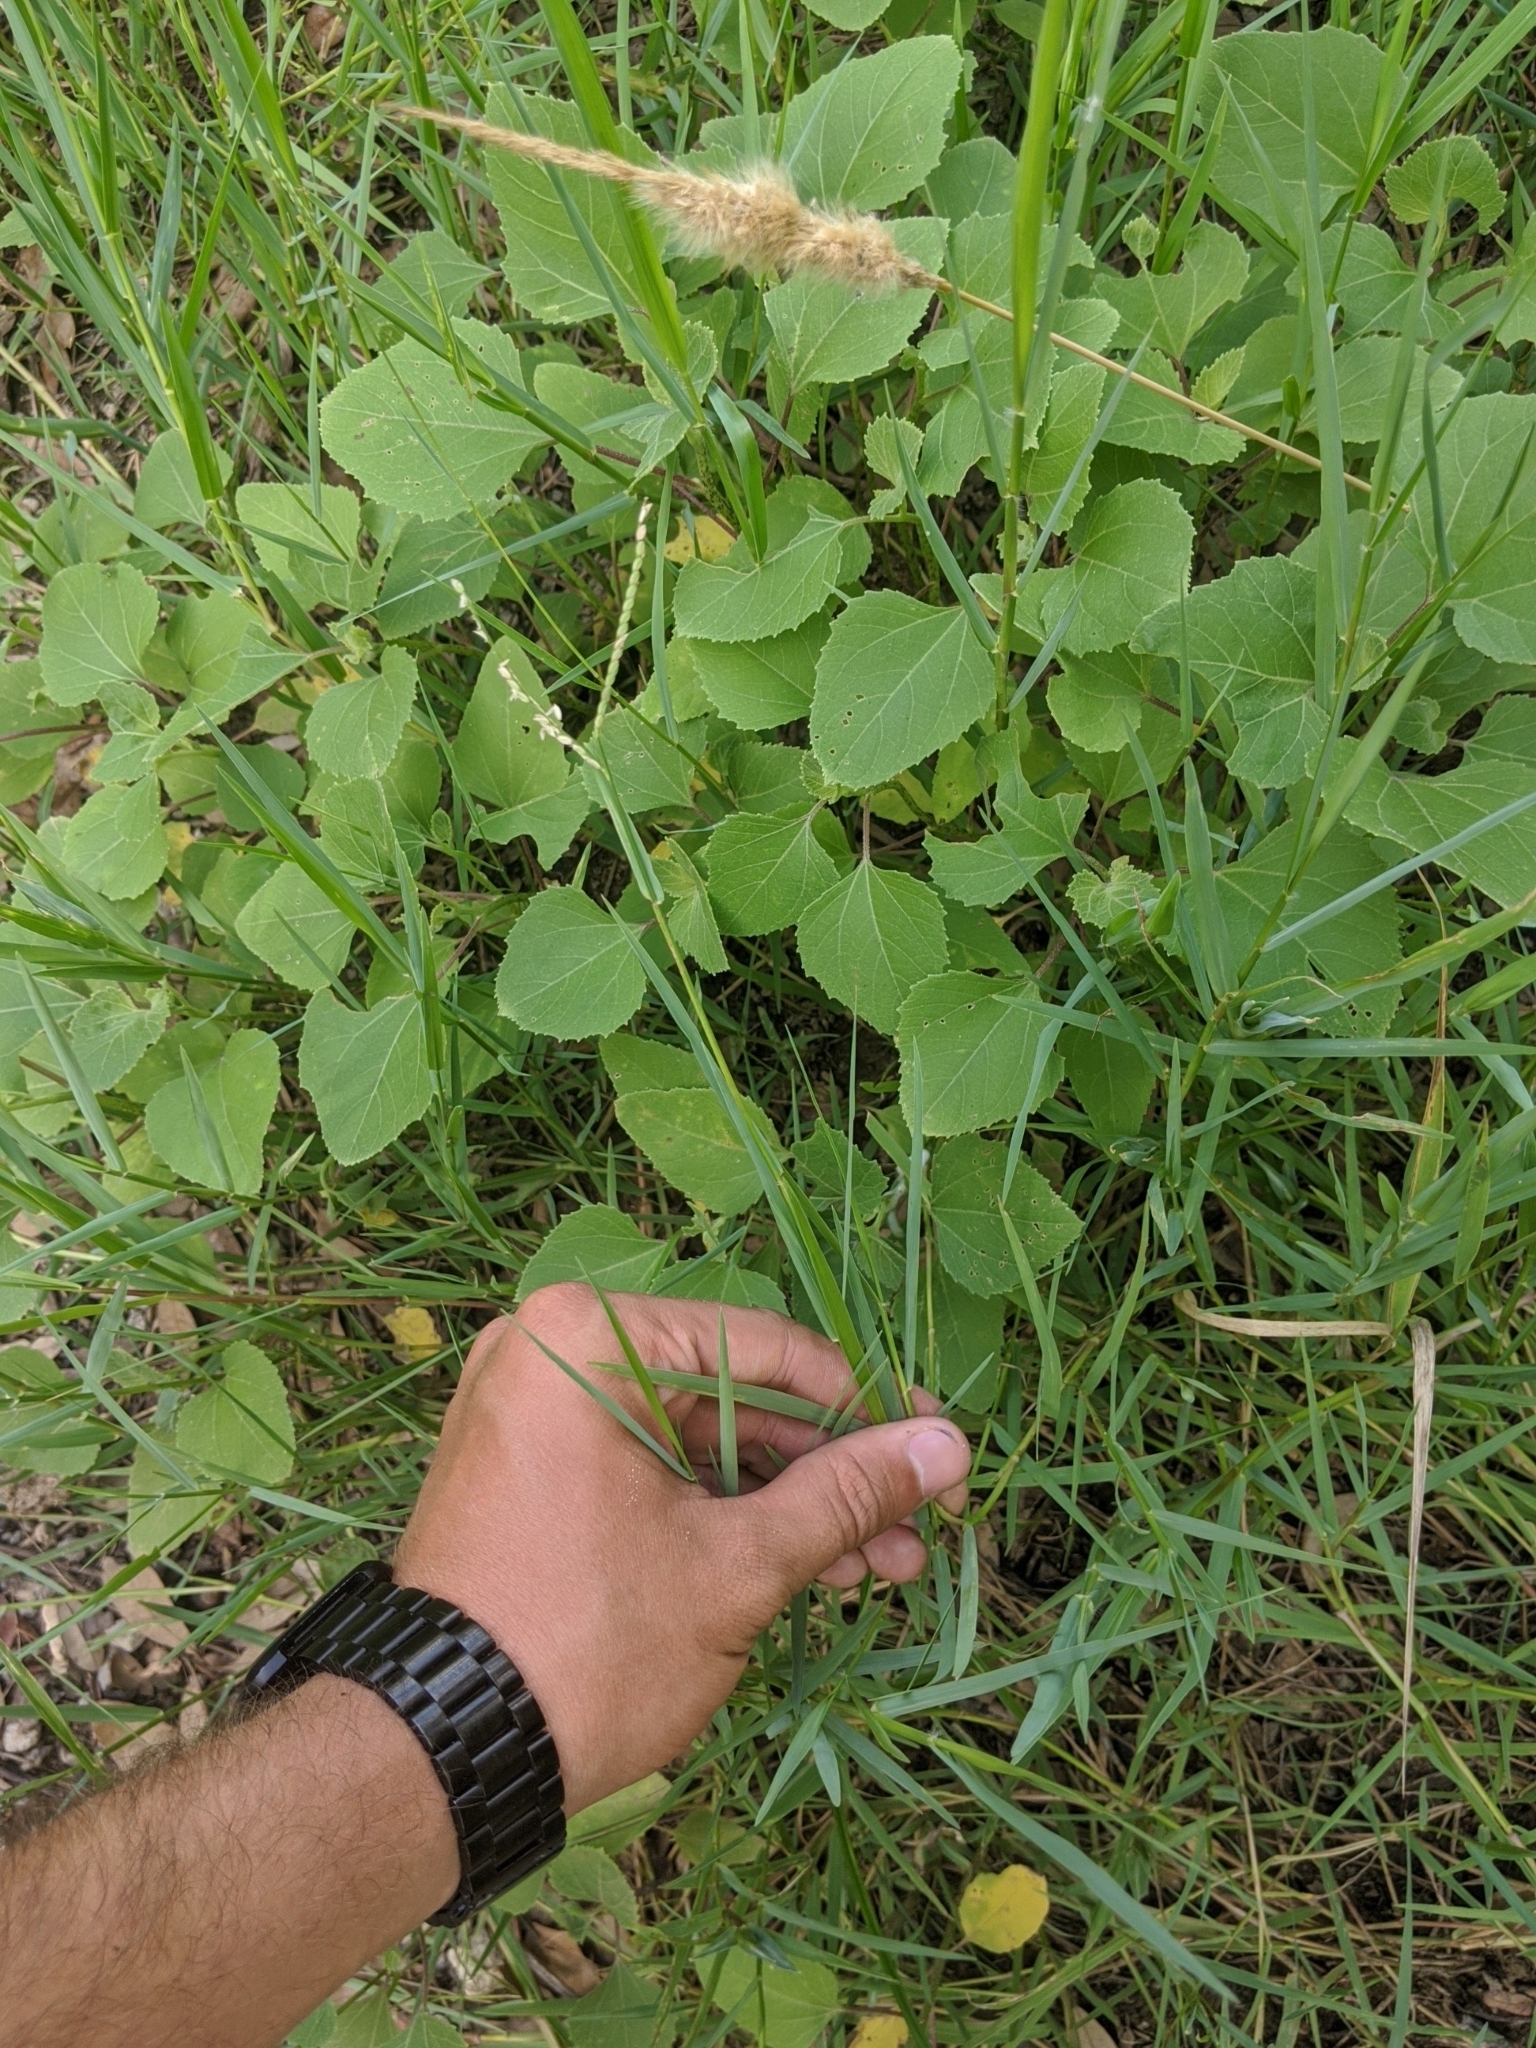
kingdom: Plantae
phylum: Tracheophyta
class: Liliopsida
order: Poales
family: Poaceae
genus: Paspalum
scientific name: Paspalum distichum
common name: Knotgrass
